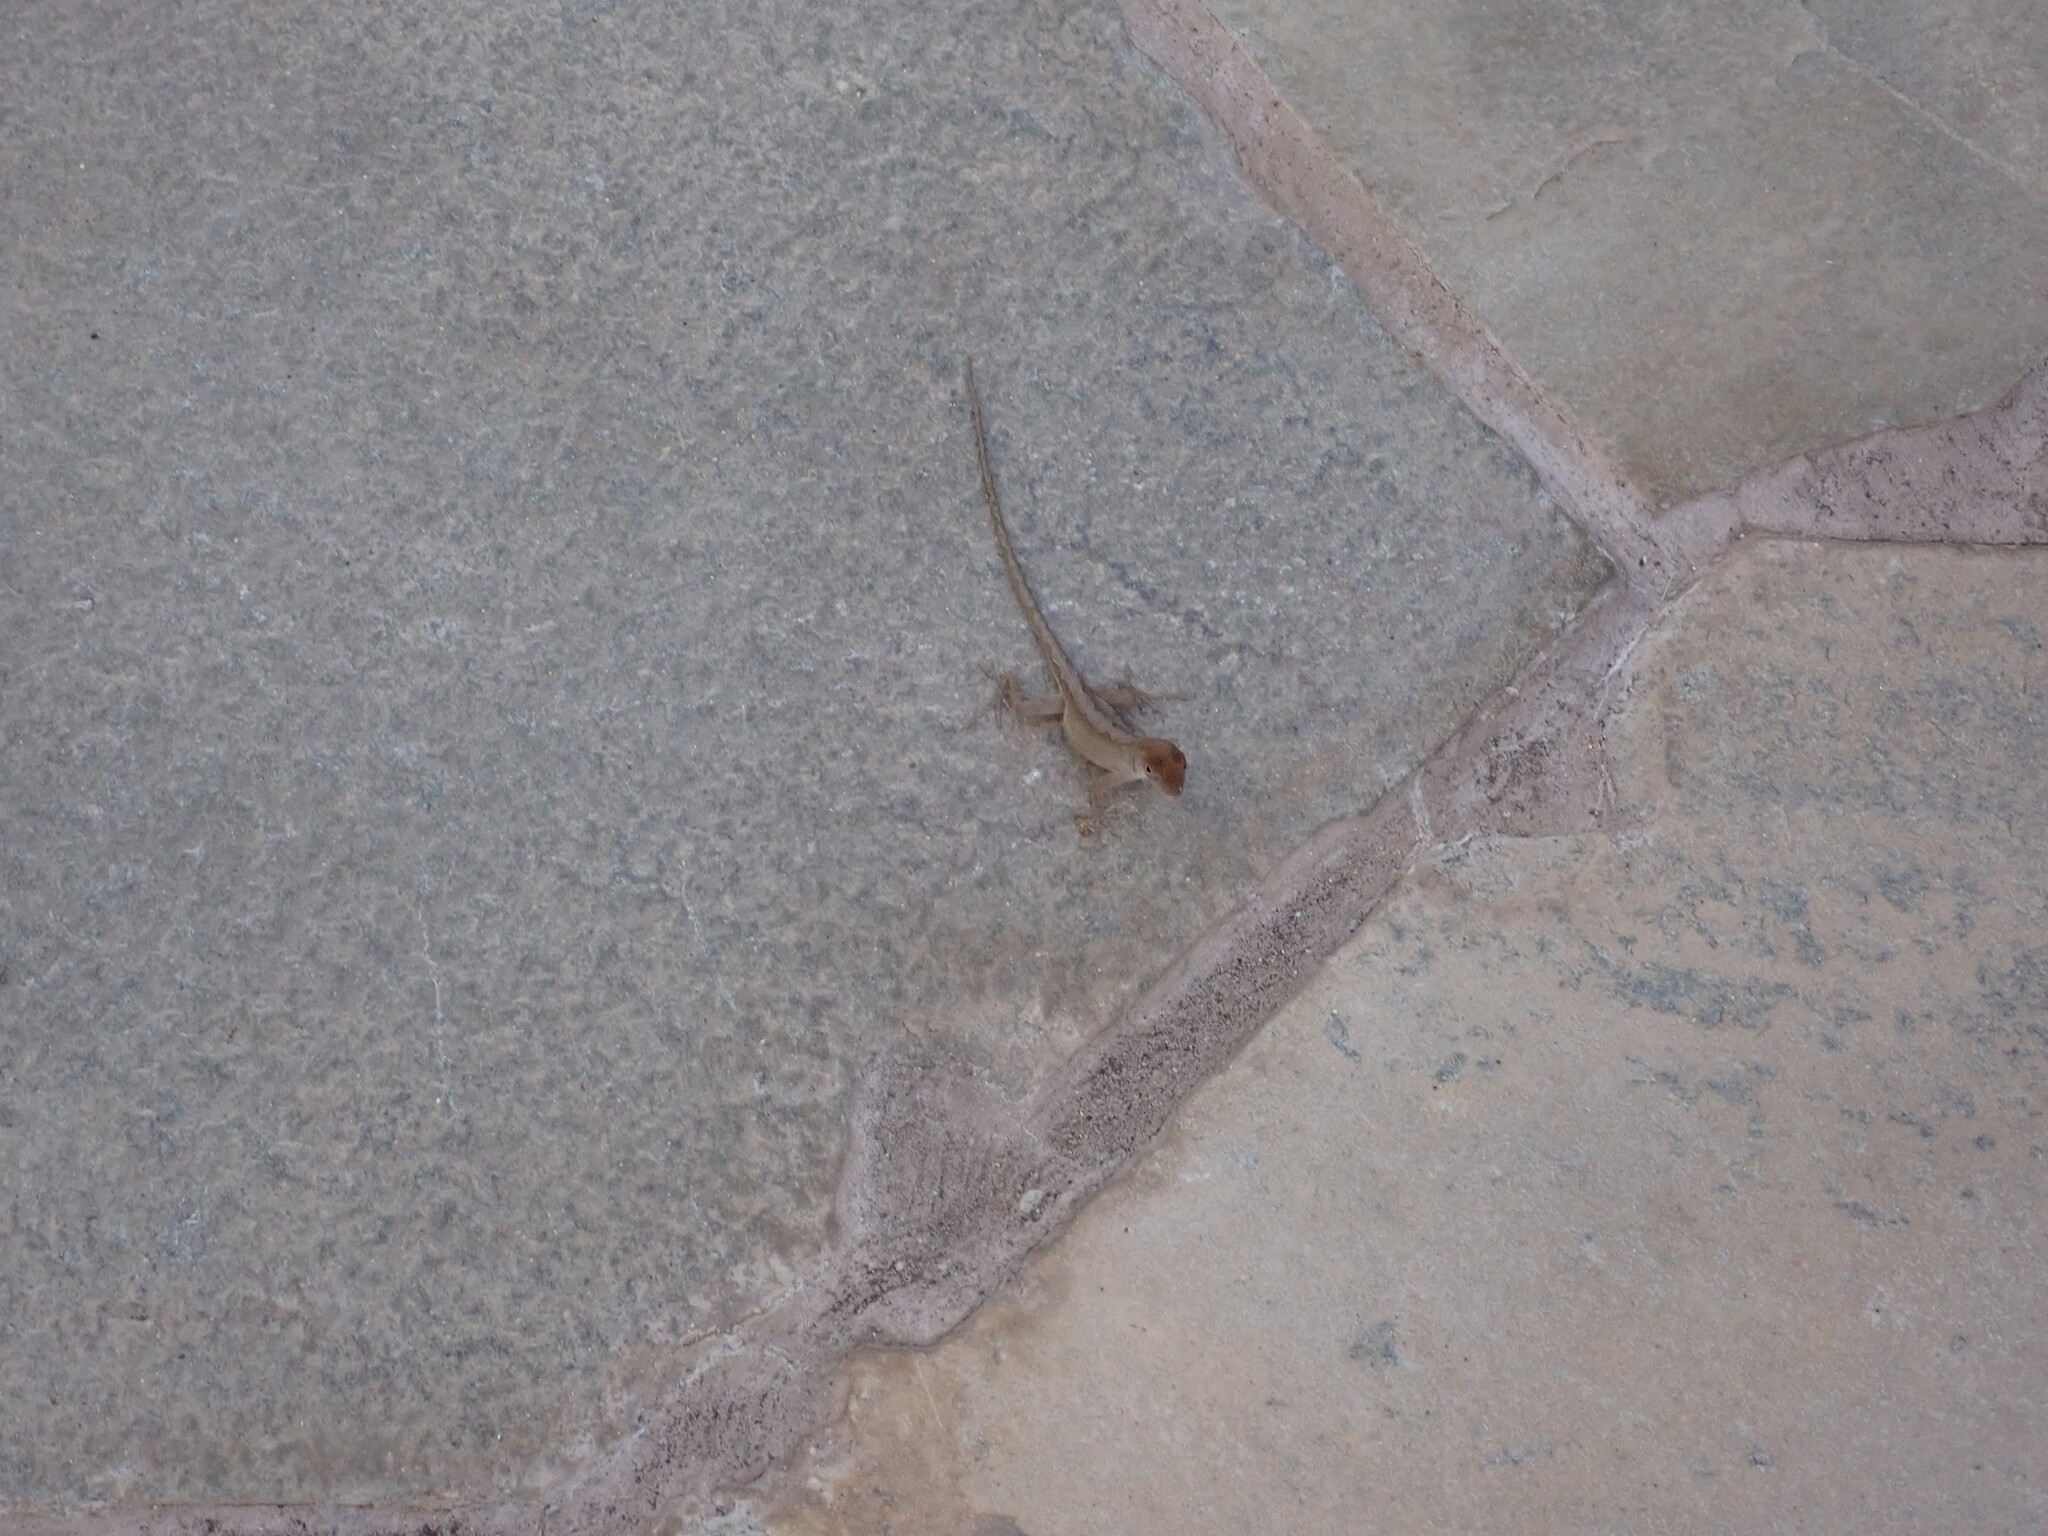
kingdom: Animalia
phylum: Chordata
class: Squamata
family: Dactyloidae
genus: Anolis
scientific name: Anolis sagrei
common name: Brown anole
